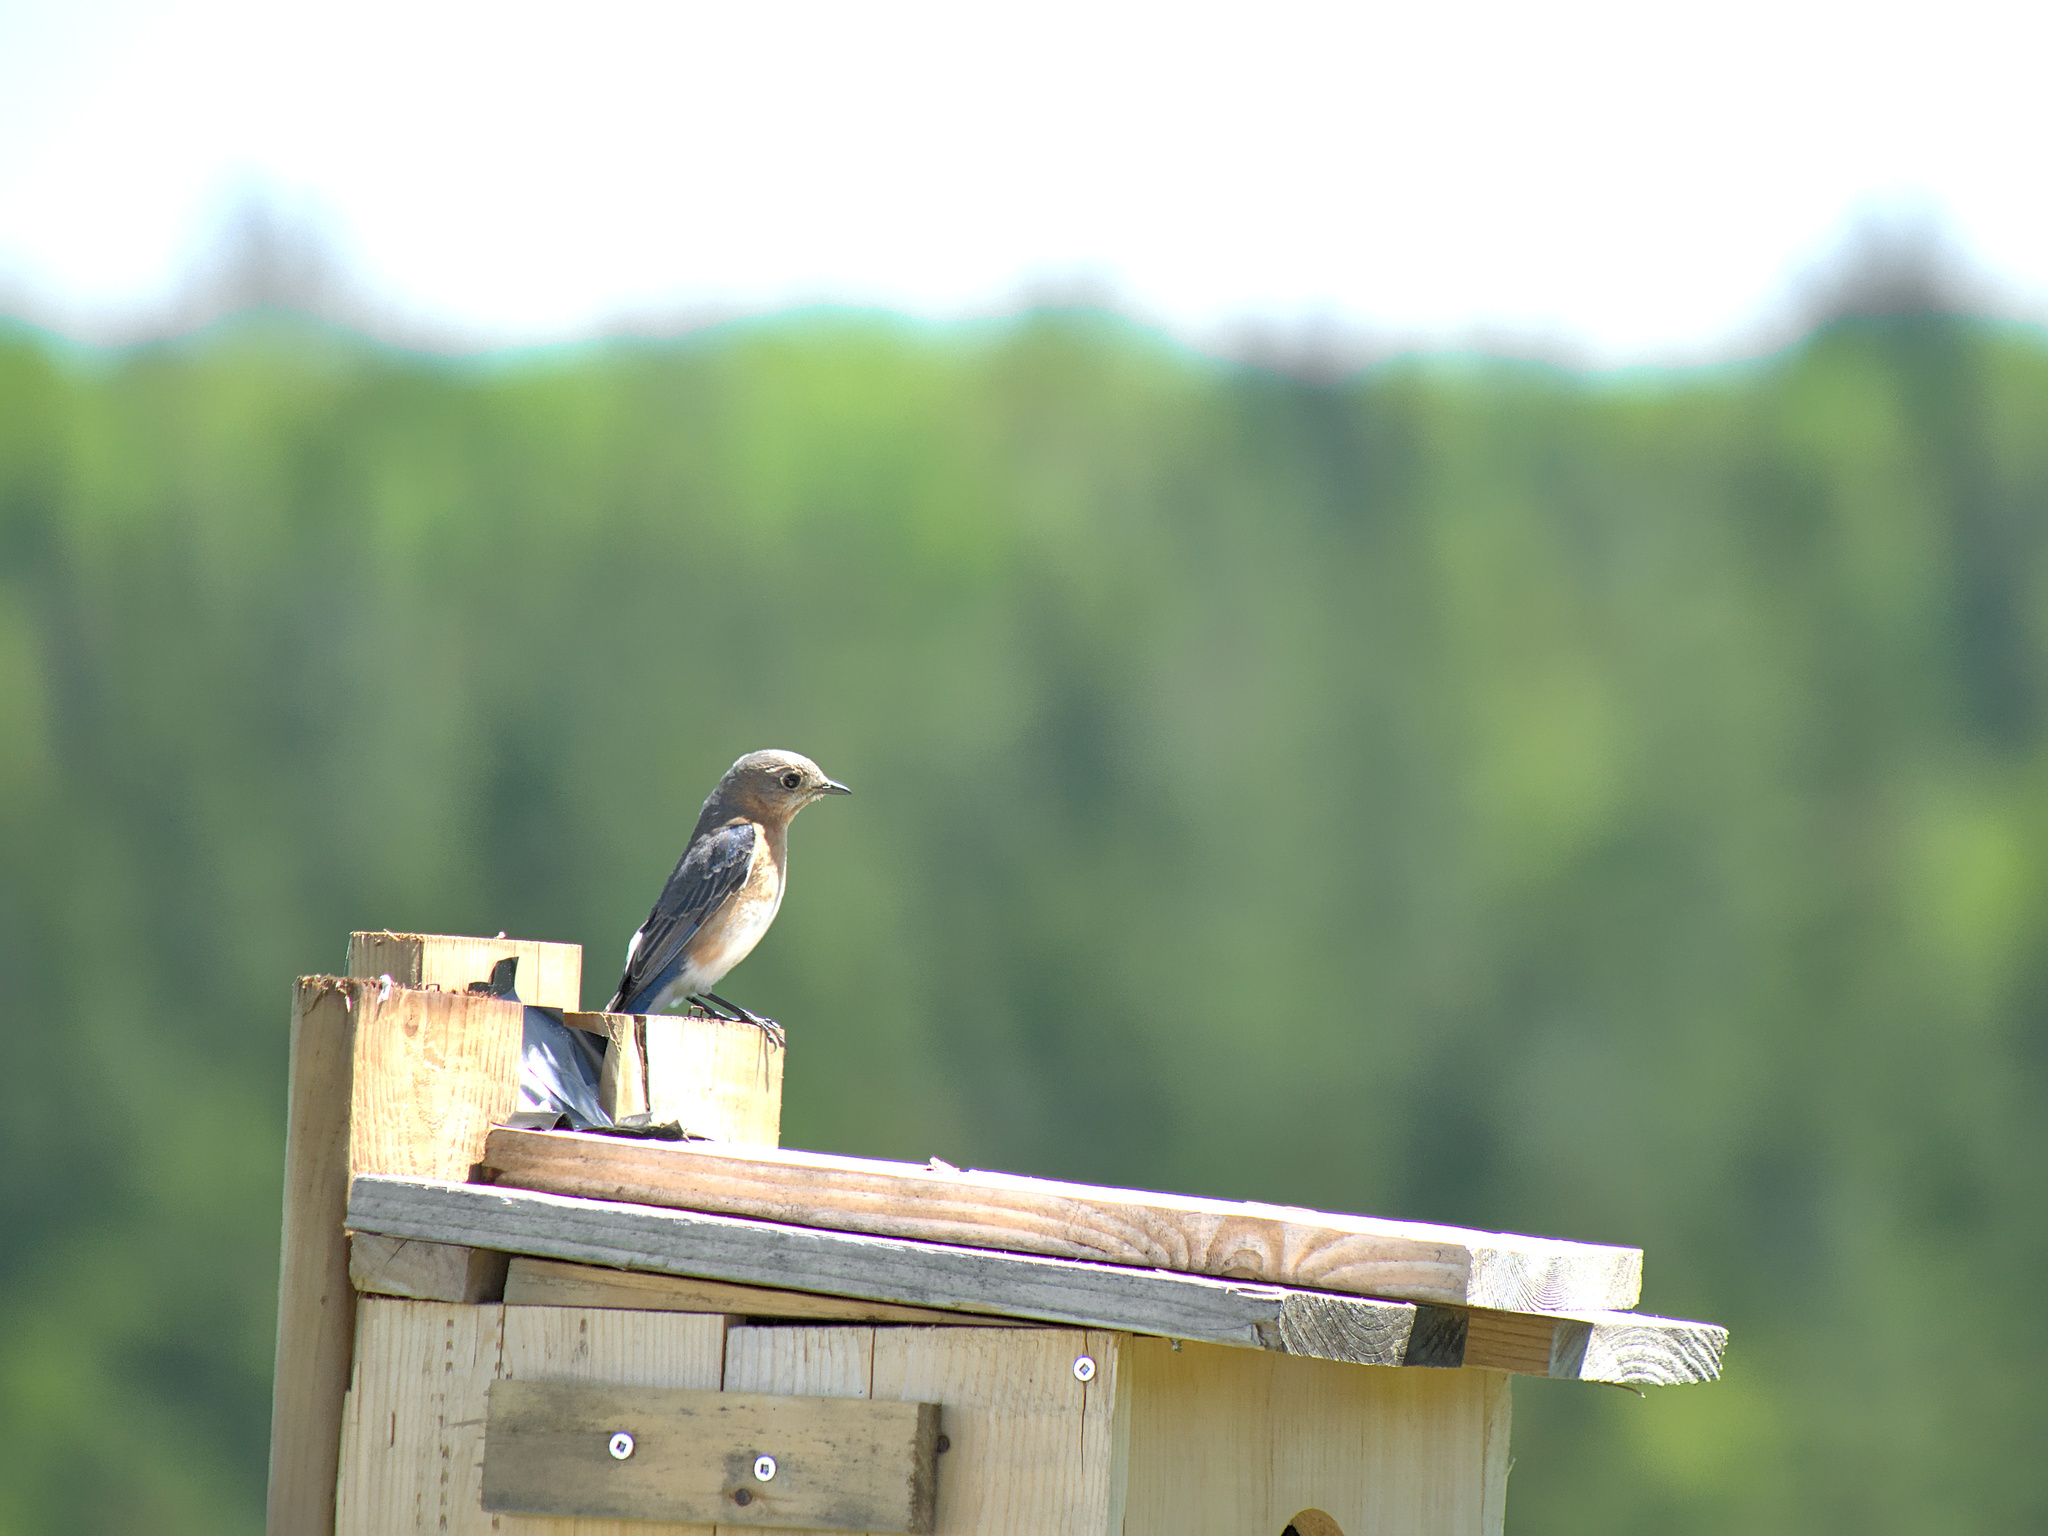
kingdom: Animalia
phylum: Chordata
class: Aves
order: Passeriformes
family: Turdidae
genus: Sialia
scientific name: Sialia sialis
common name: Eastern bluebird
